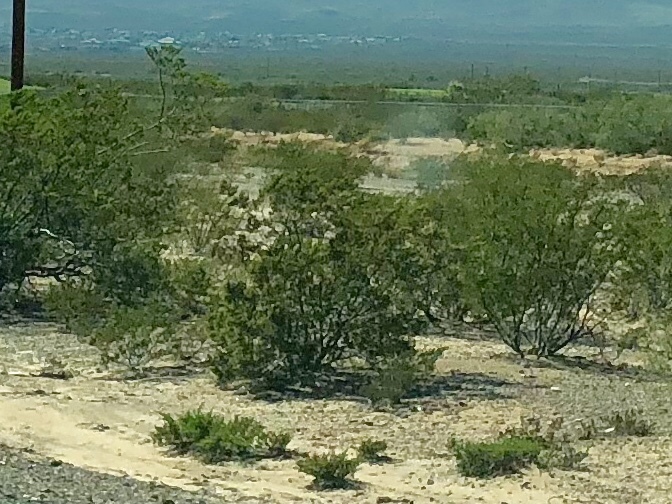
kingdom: Plantae
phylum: Tracheophyta
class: Magnoliopsida
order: Zygophyllales
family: Zygophyllaceae
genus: Larrea
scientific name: Larrea tridentata
